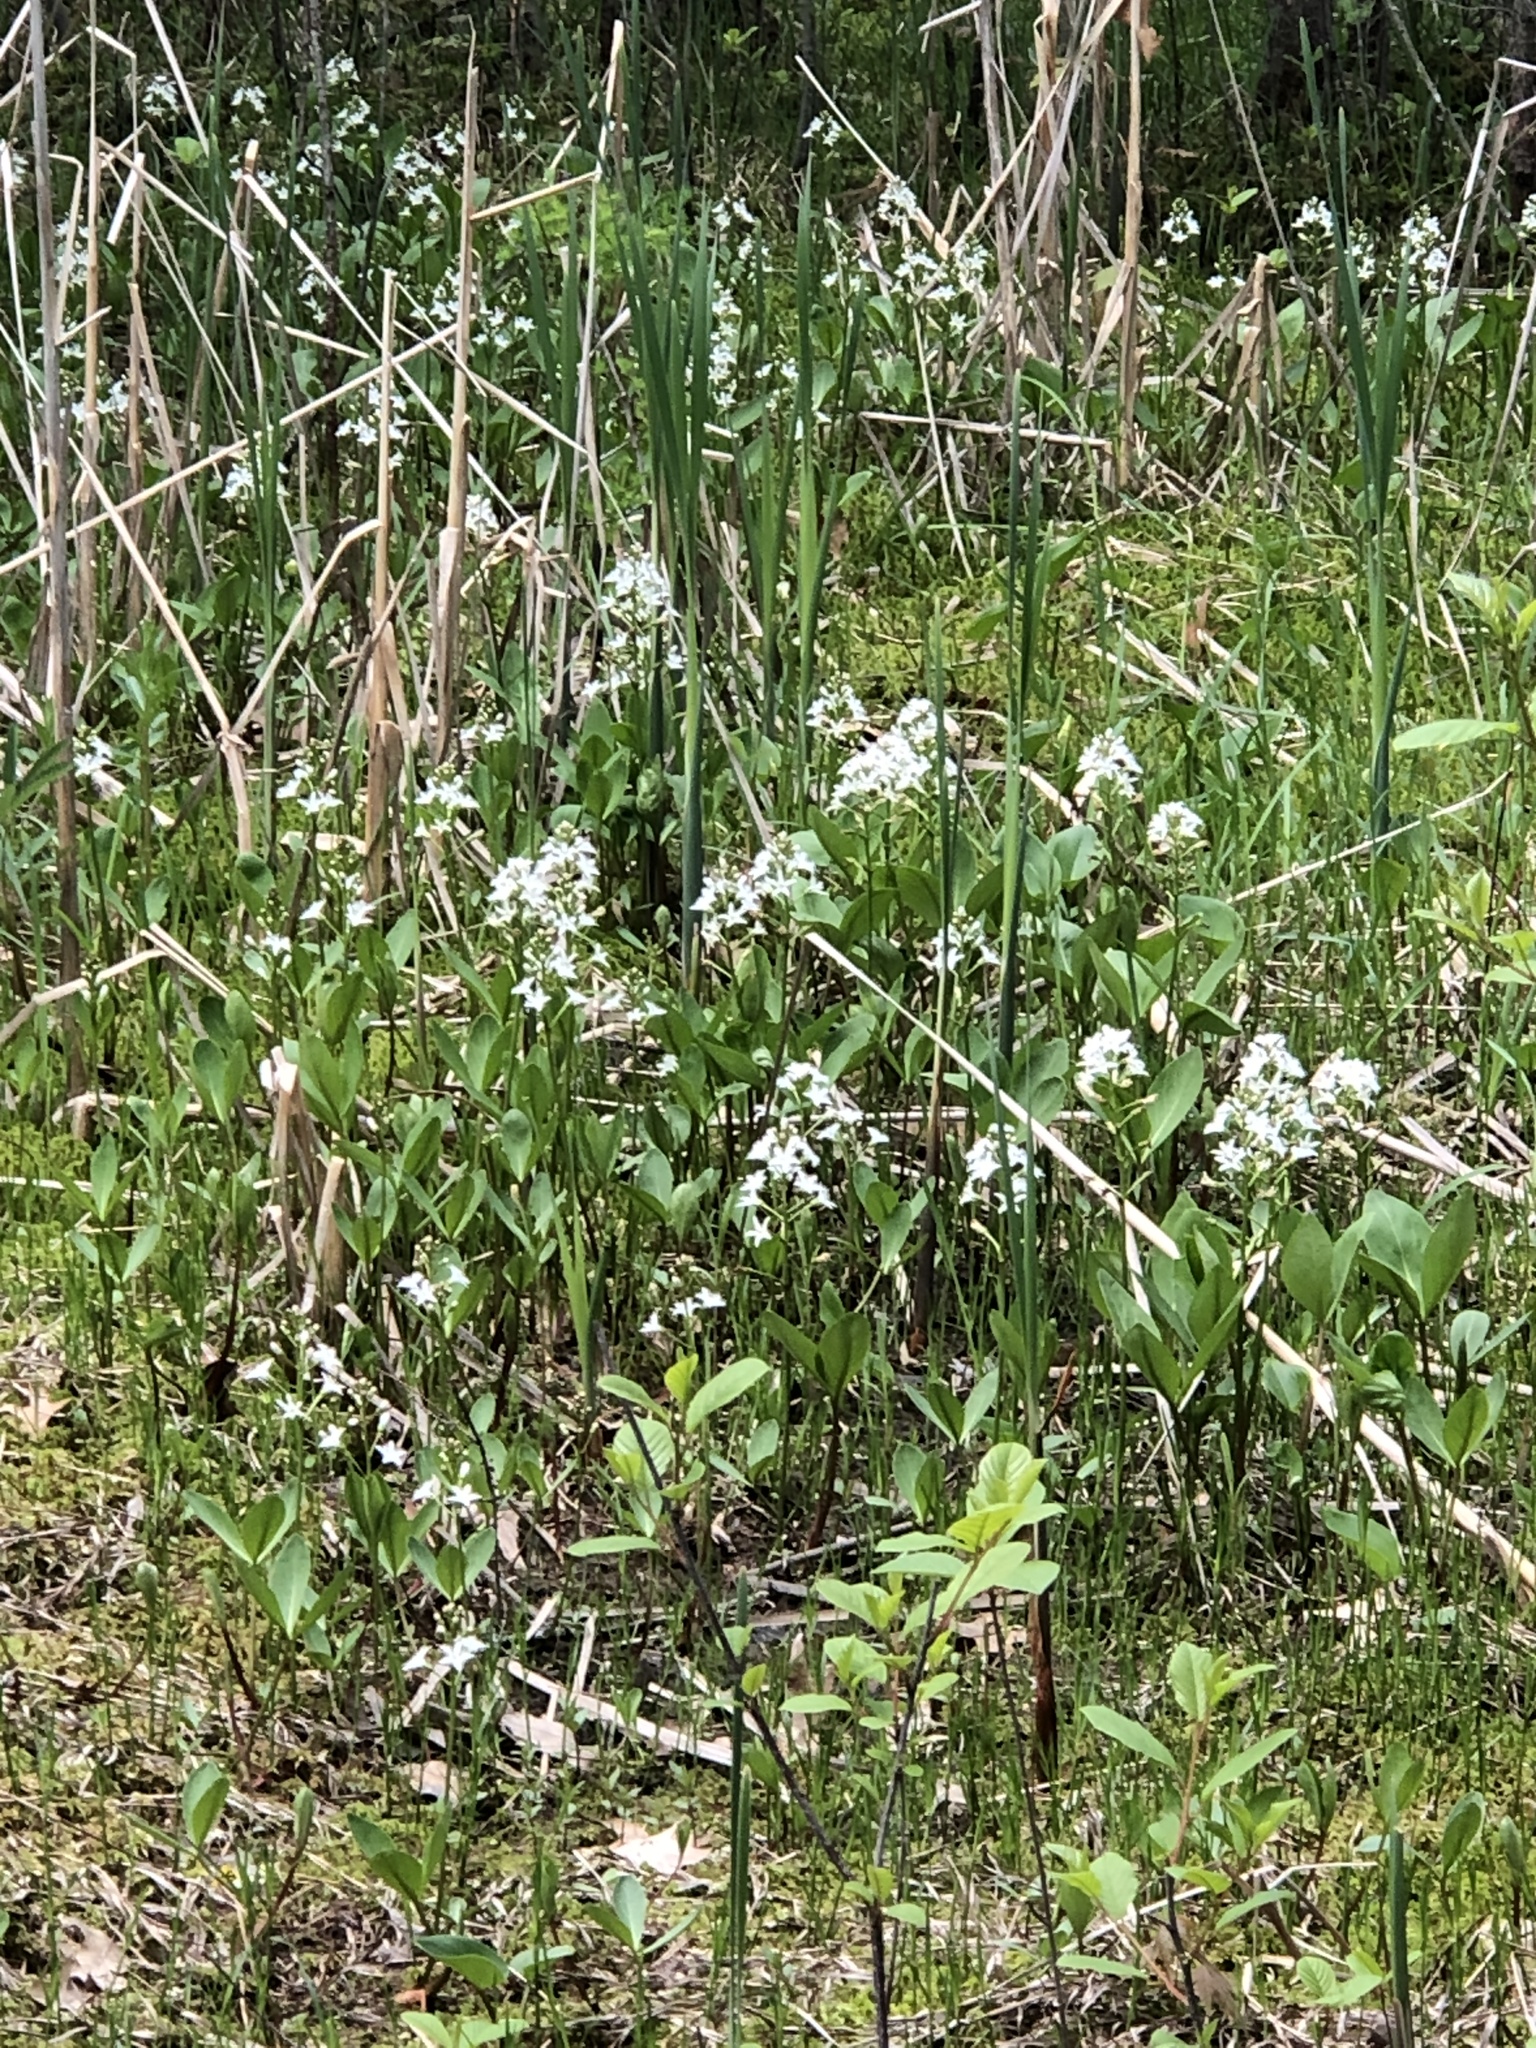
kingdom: Plantae
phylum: Tracheophyta
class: Magnoliopsida
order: Asterales
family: Menyanthaceae
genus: Menyanthes
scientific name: Menyanthes trifoliata
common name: Bogbean
